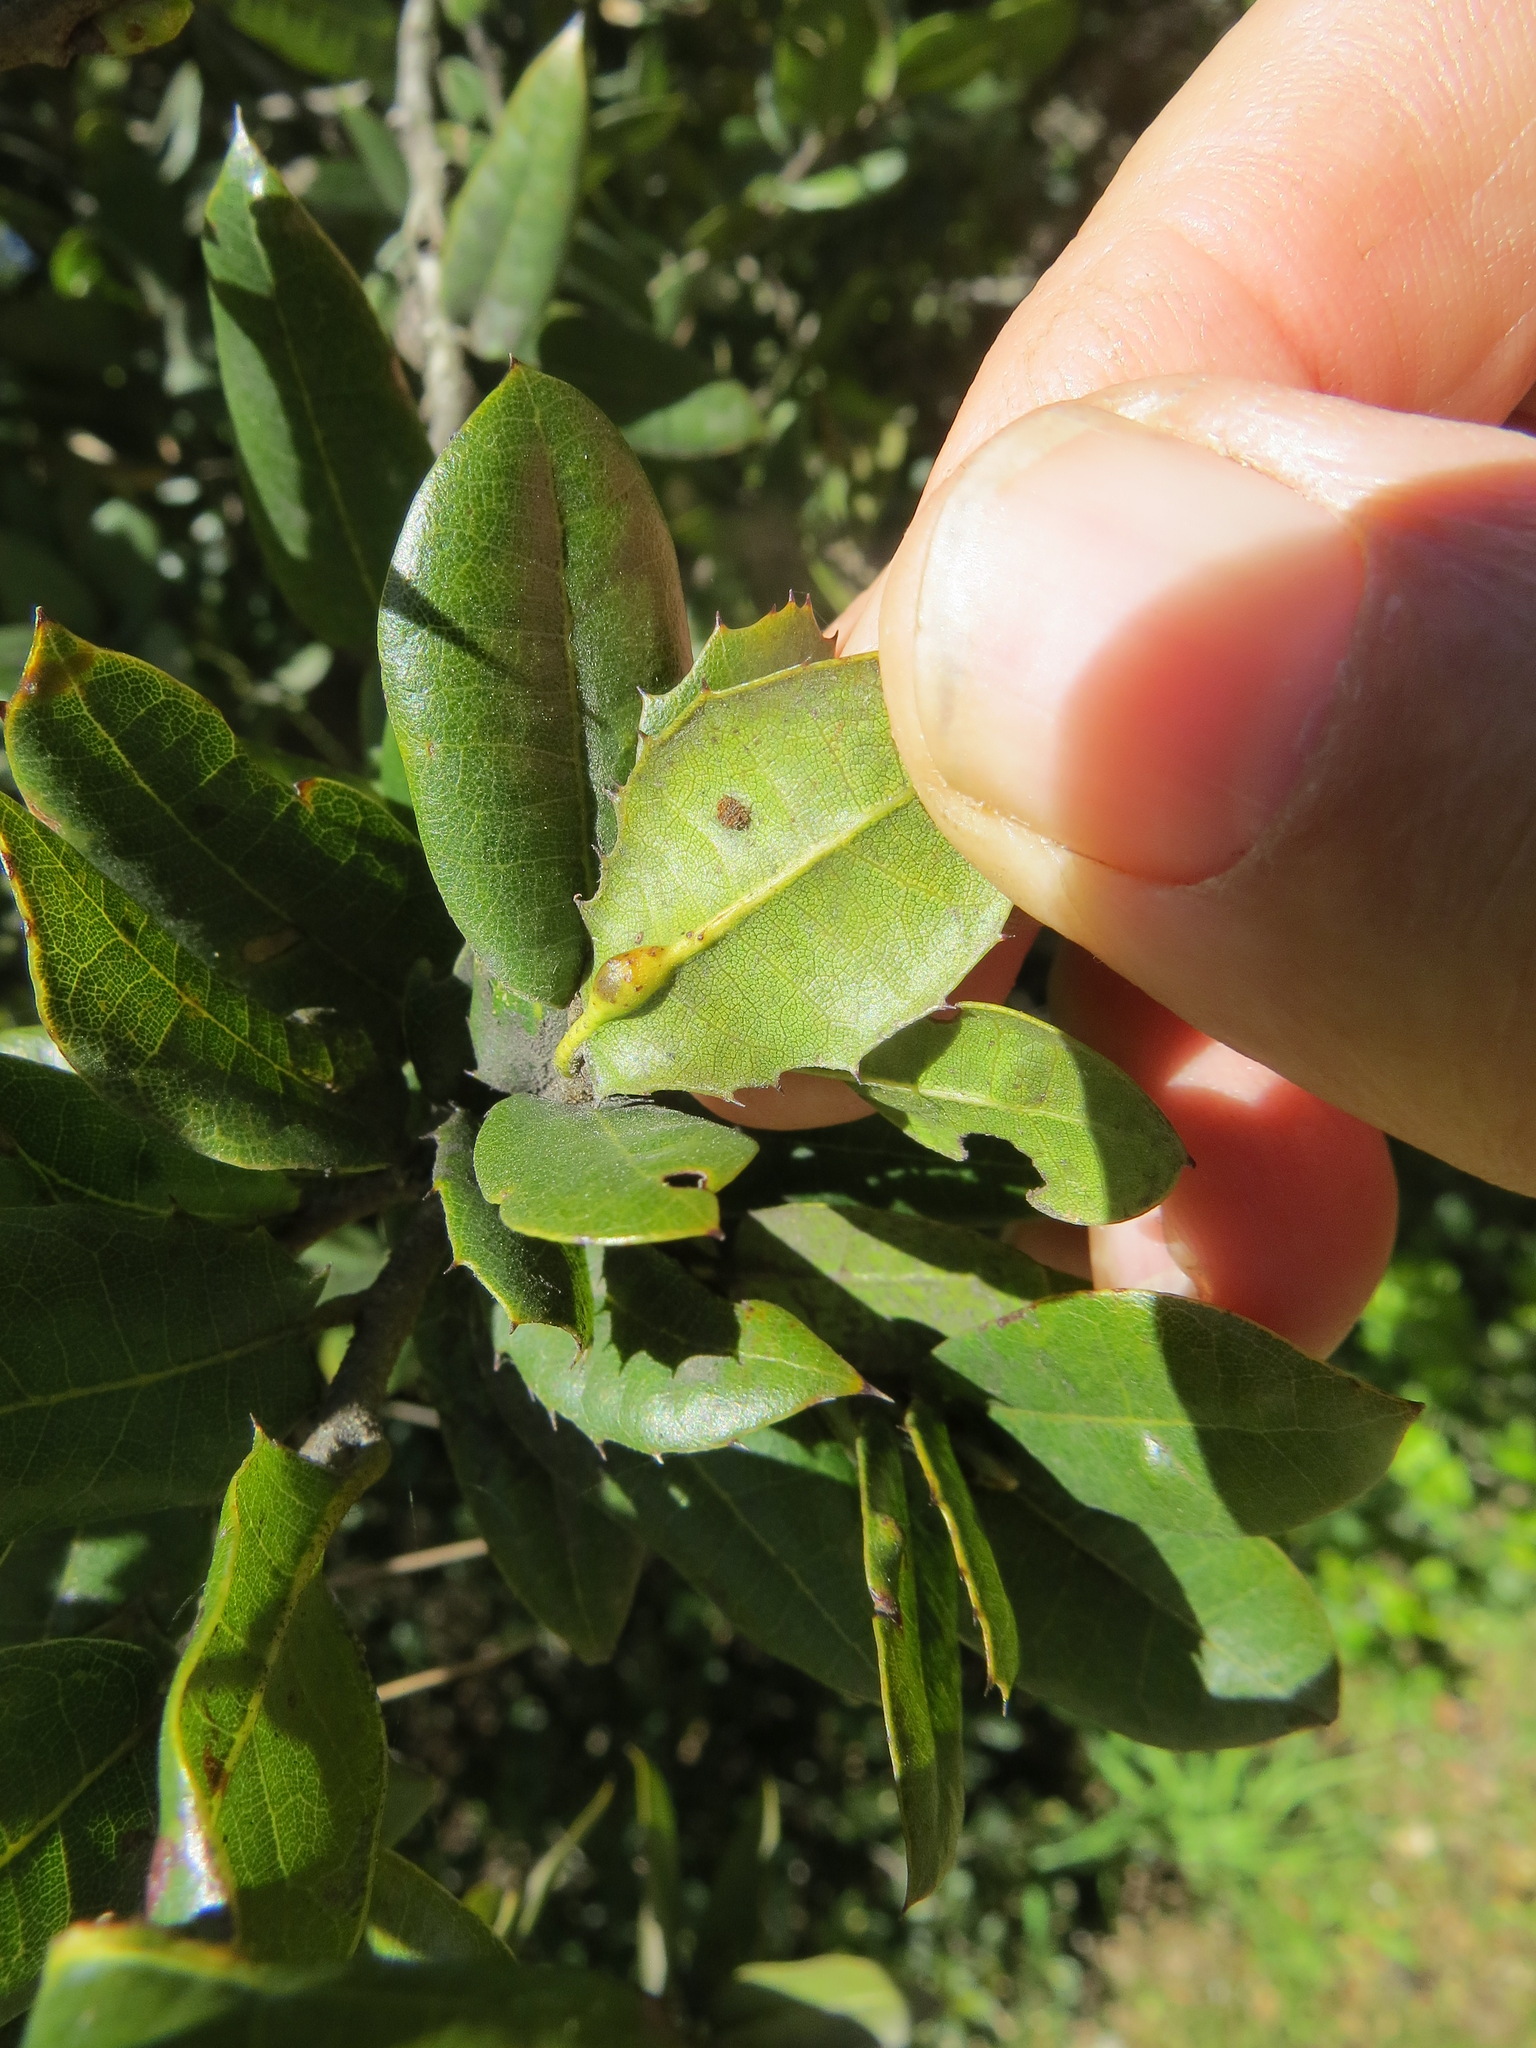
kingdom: Animalia
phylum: Arthropoda
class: Insecta
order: Hymenoptera
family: Cynipidae
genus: Melikaiella
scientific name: Melikaiella
